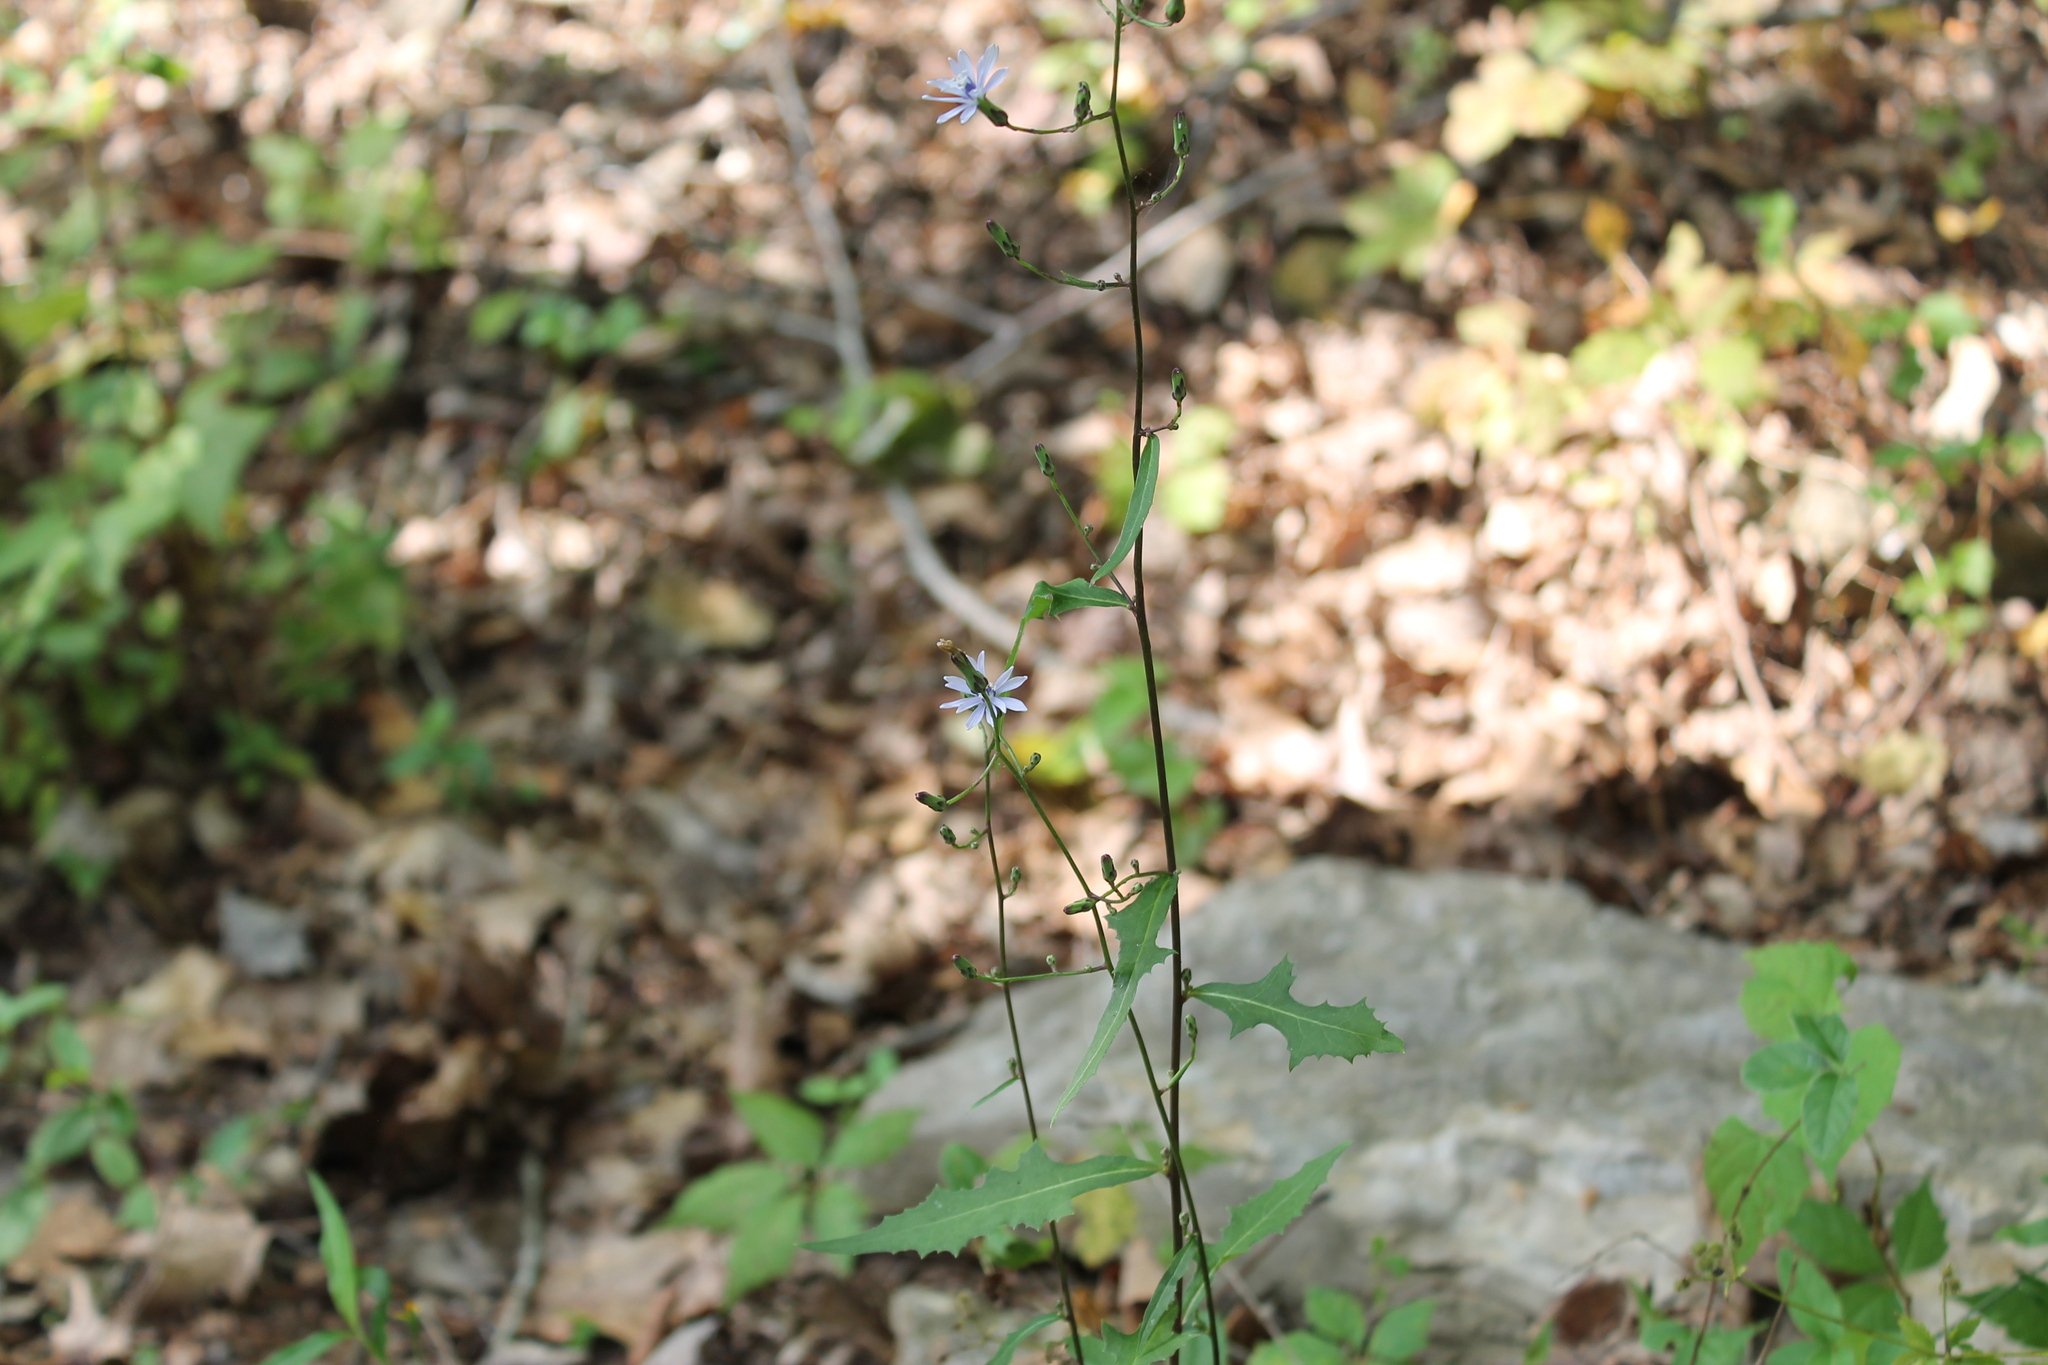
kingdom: Plantae
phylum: Tracheophyta
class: Magnoliopsida
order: Asterales
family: Asteraceae
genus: Lactuca
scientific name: Lactuca floridana
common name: Woodland lettuce
